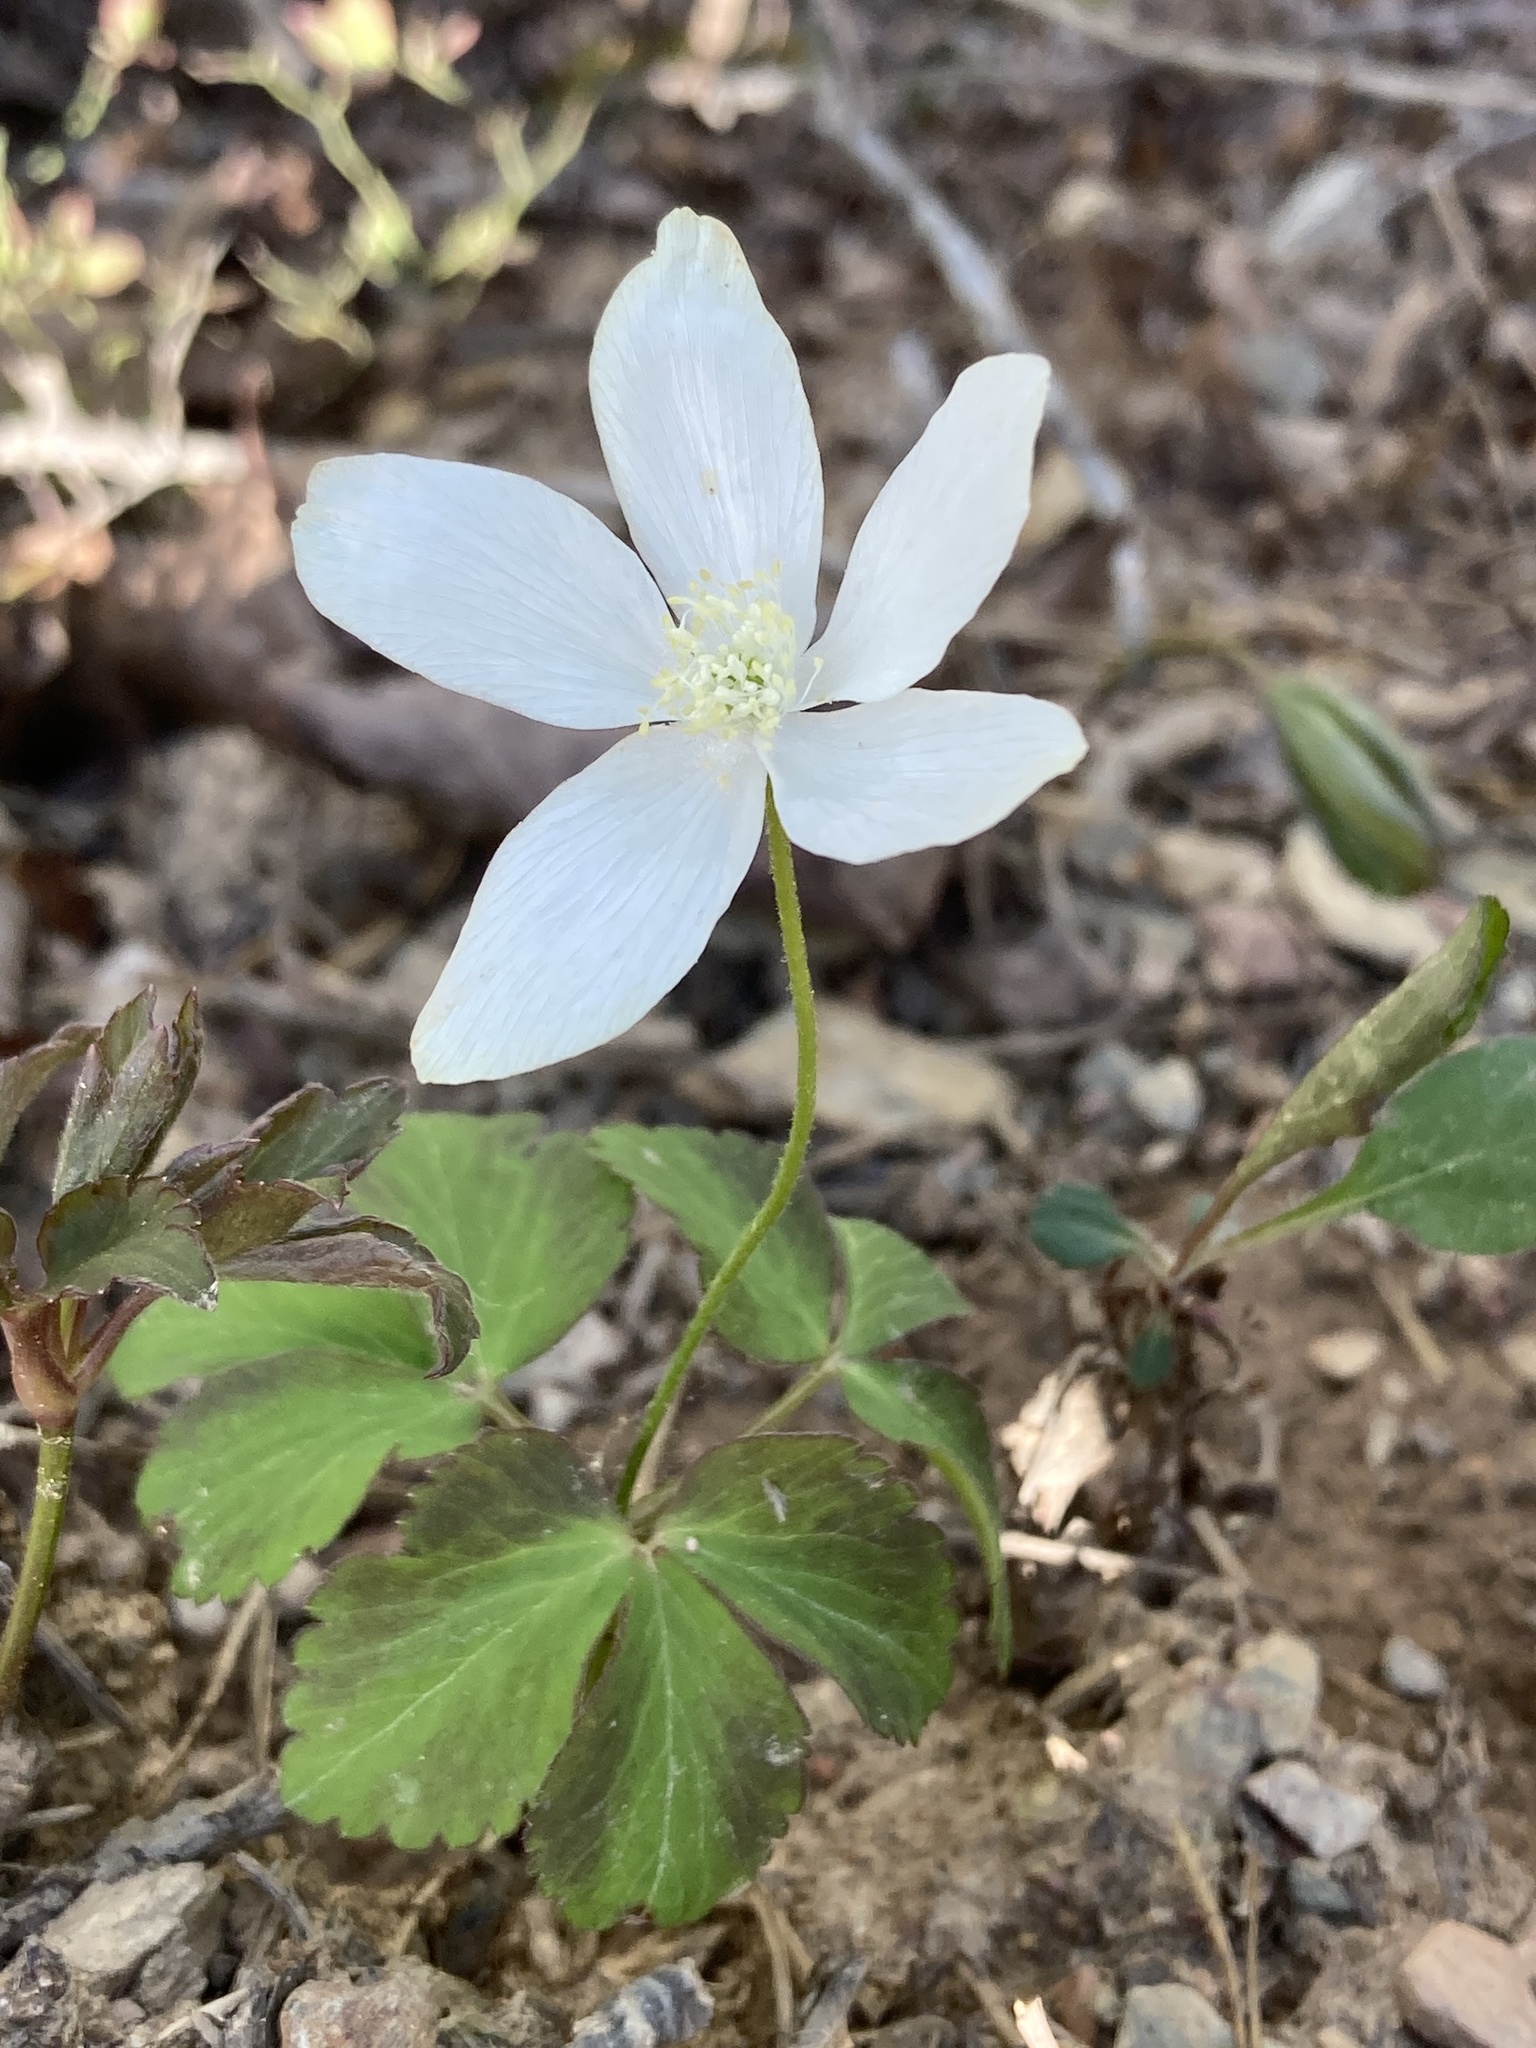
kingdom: Plantae
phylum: Tracheophyta
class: Magnoliopsida
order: Ranunculales
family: Ranunculaceae
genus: Anemone
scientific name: Anemone lancifolia
